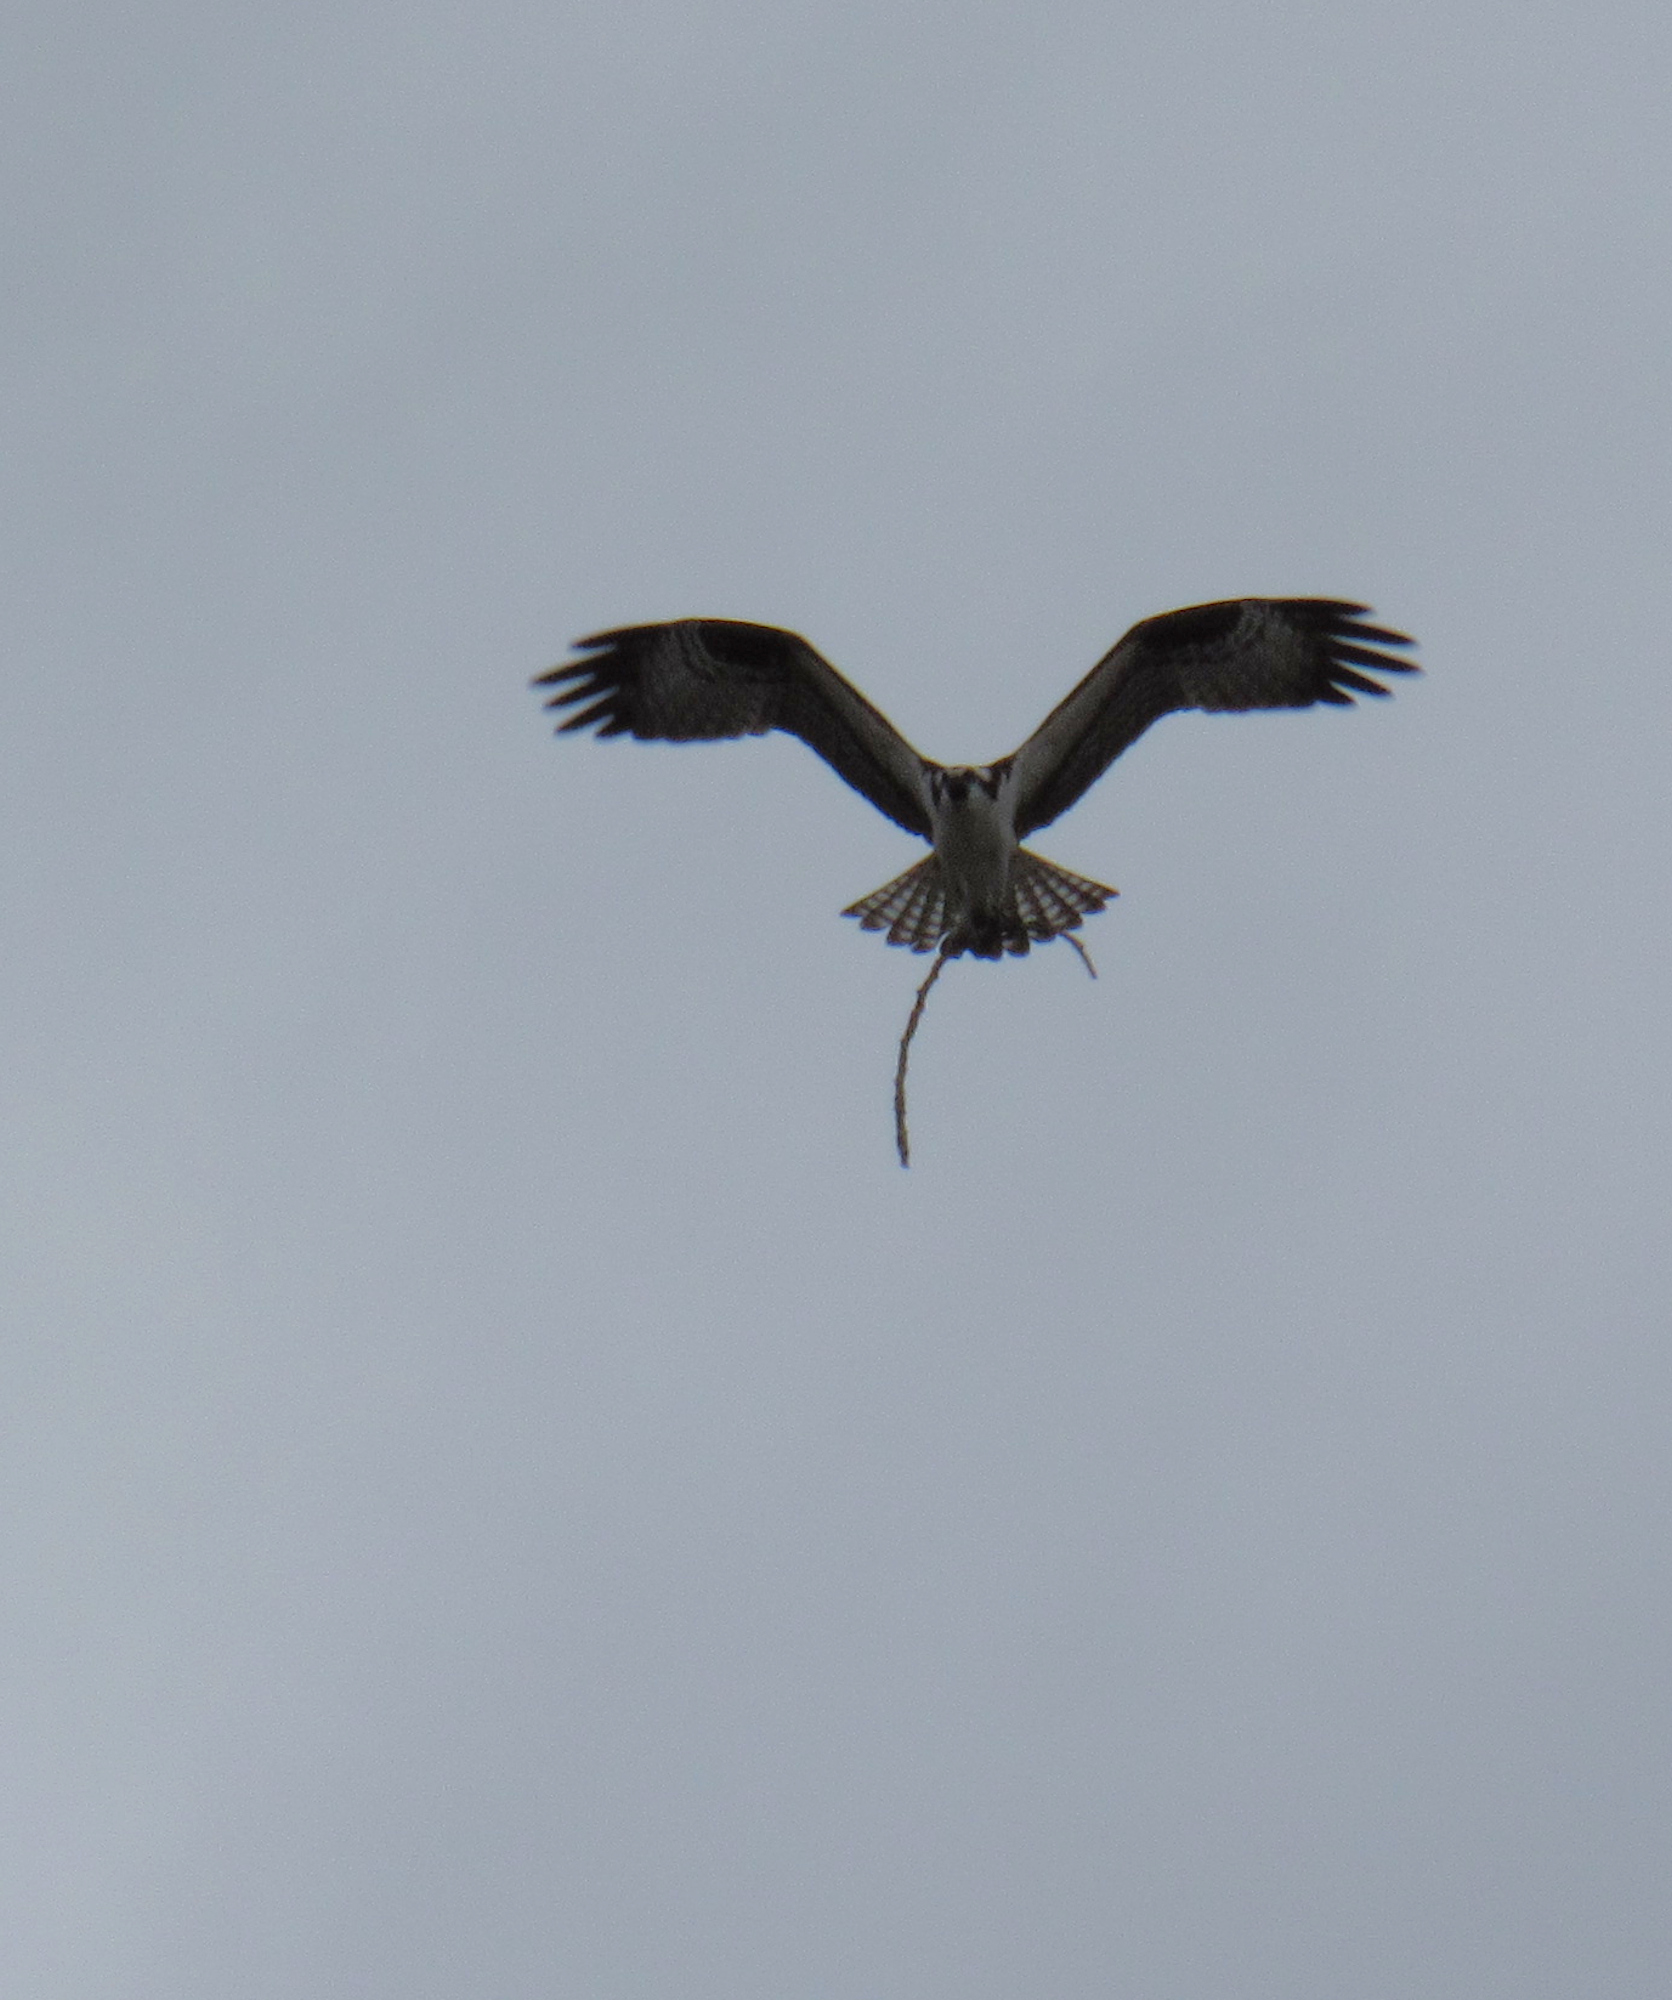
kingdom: Animalia
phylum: Chordata
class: Aves
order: Accipitriformes
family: Pandionidae
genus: Pandion
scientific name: Pandion haliaetus
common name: Osprey
